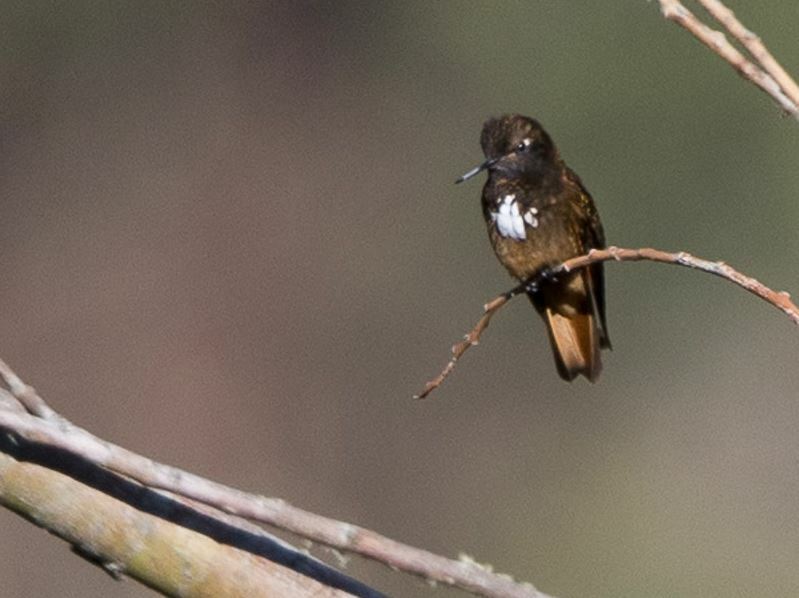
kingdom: Animalia
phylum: Chordata
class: Aves
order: Apodiformes
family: Trochilidae
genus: Aglaeactis
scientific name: Aglaeactis castelnaudii
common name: White-tufted sunbeam
